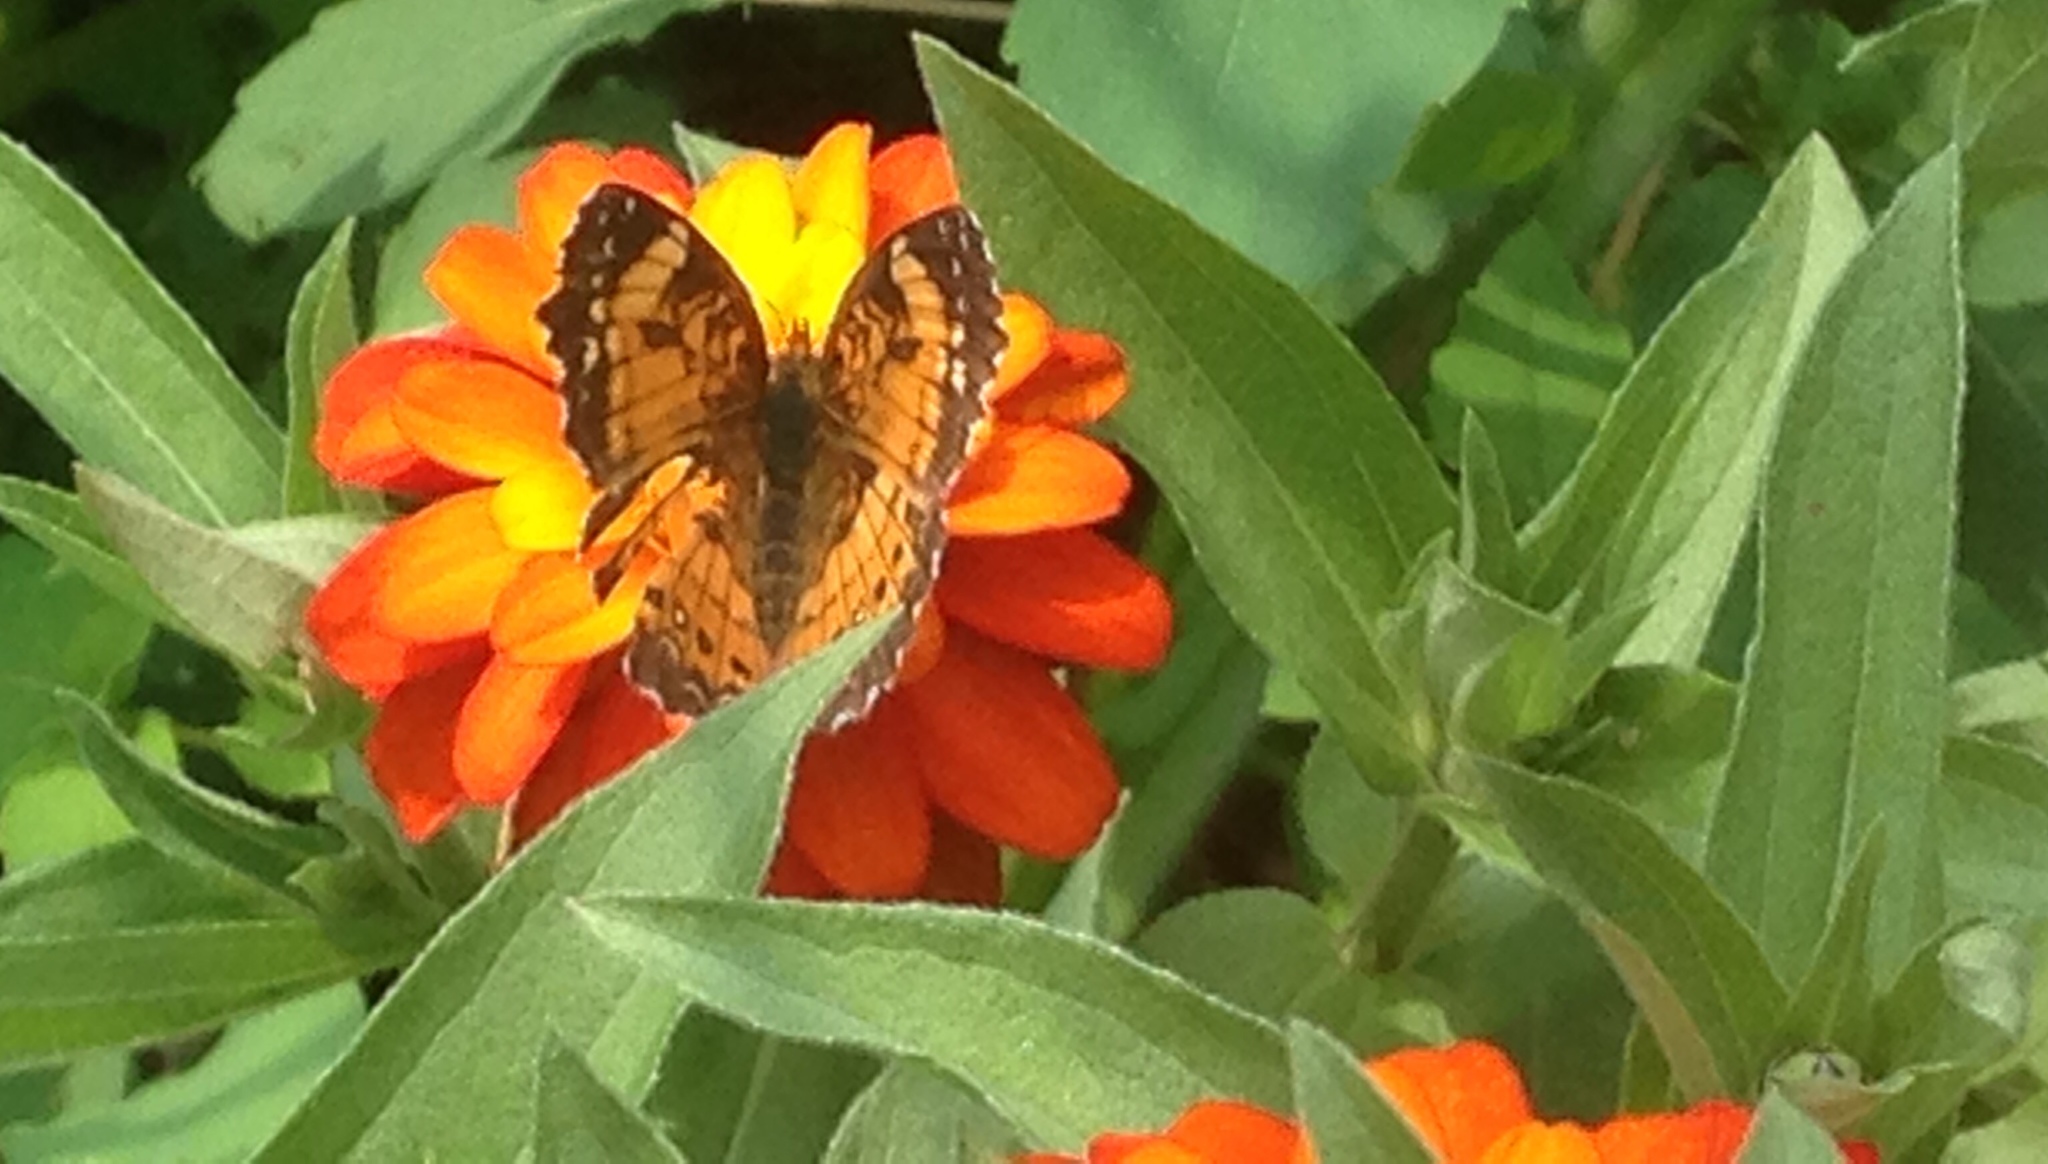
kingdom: Animalia
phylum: Arthropoda
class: Insecta
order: Lepidoptera
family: Nymphalidae
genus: Chlosyne
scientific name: Chlosyne nycteis
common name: Silvery checkerspot
